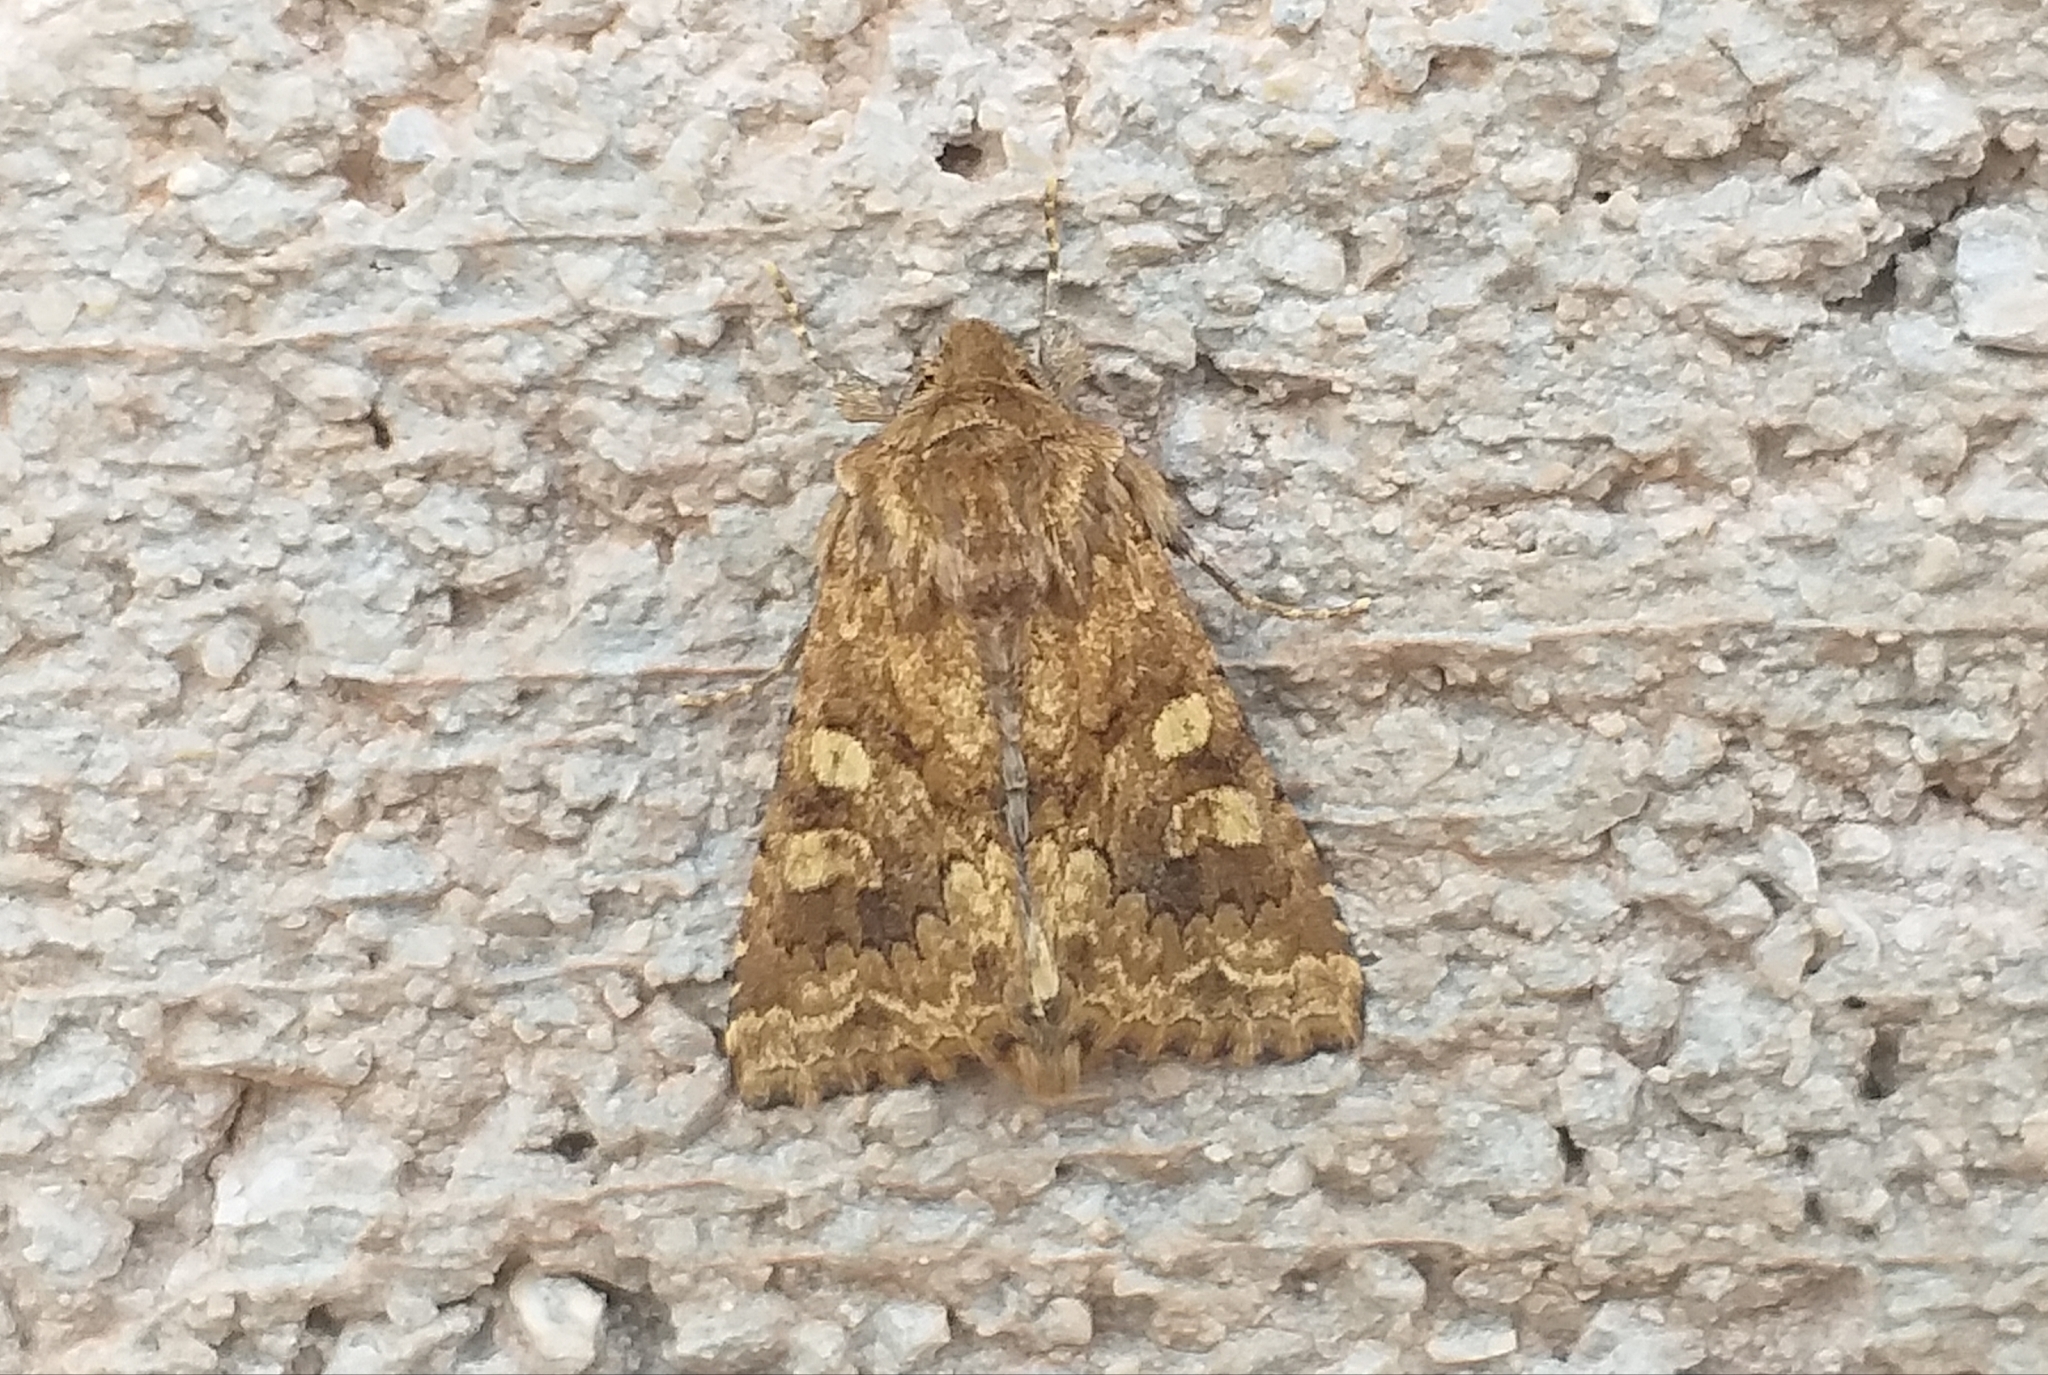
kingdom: Animalia
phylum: Arthropoda
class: Insecta
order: Lepidoptera
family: Noctuidae
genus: Conisania
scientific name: Conisania luteago
